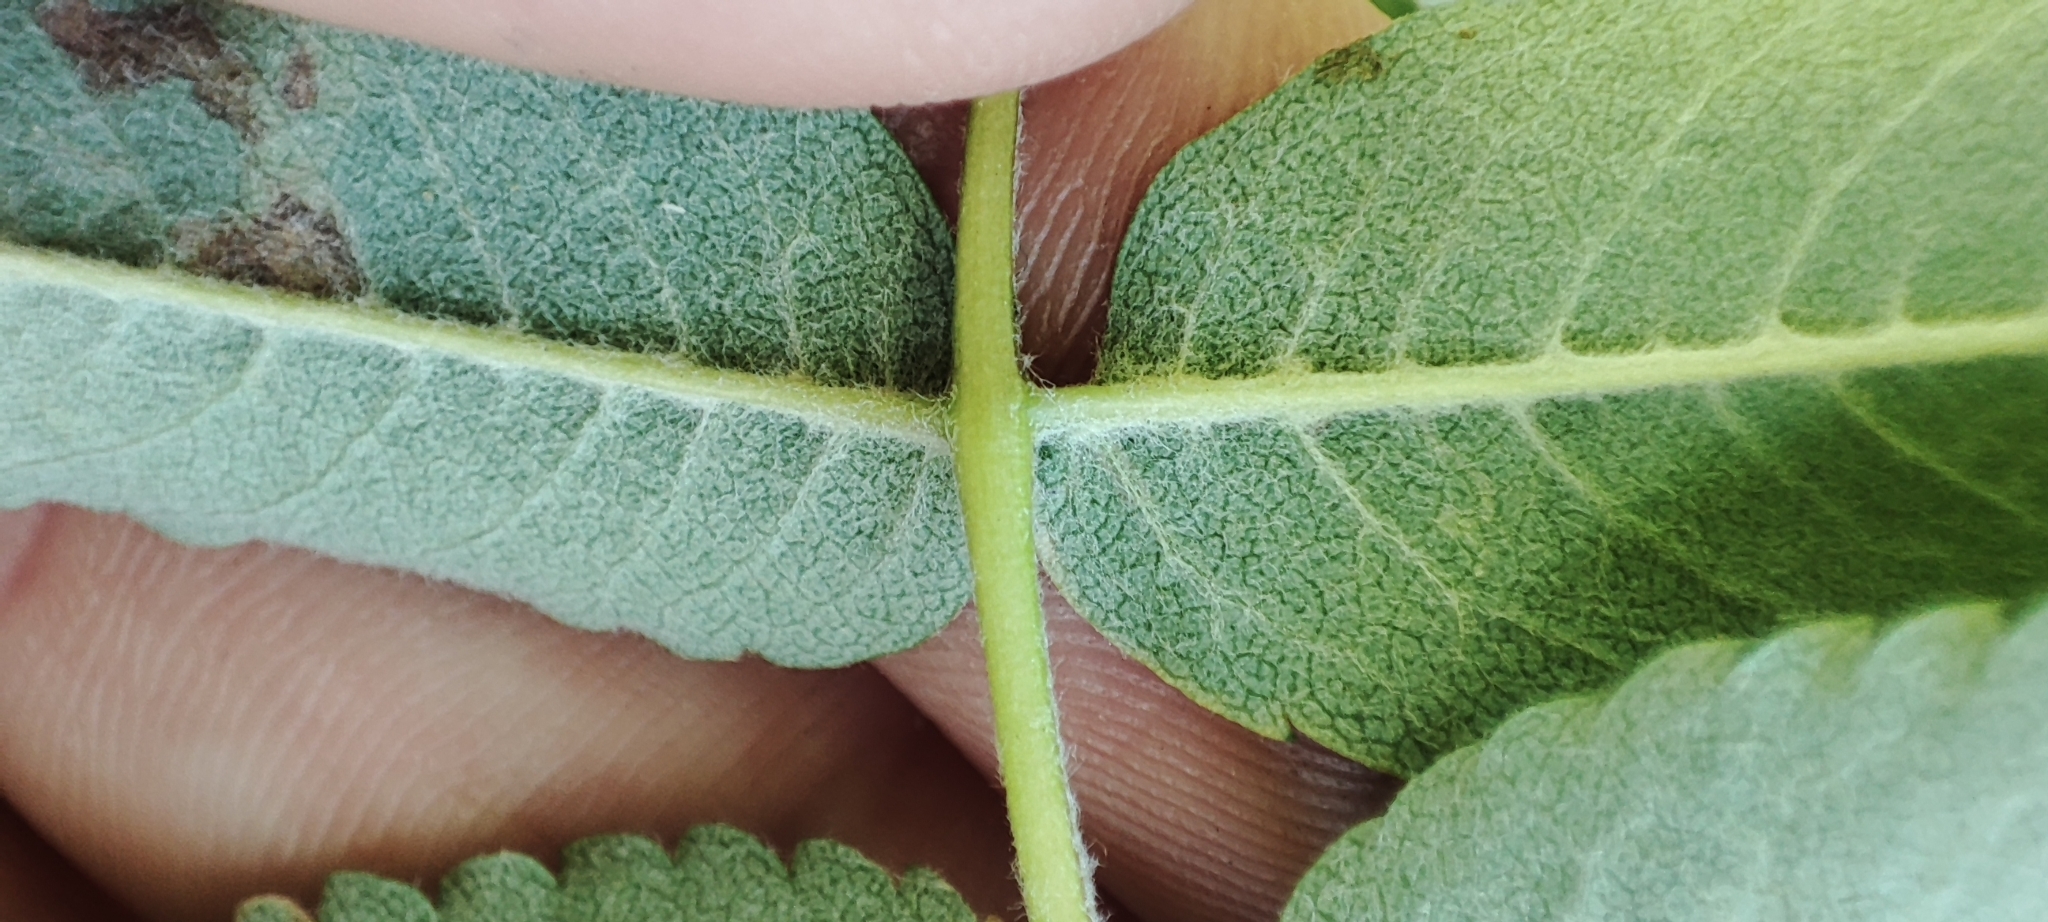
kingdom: Plantae
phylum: Tracheophyta
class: Magnoliopsida
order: Rosales
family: Rosaceae
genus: Sorbus
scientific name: Sorbus aucuparia
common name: Rowan
